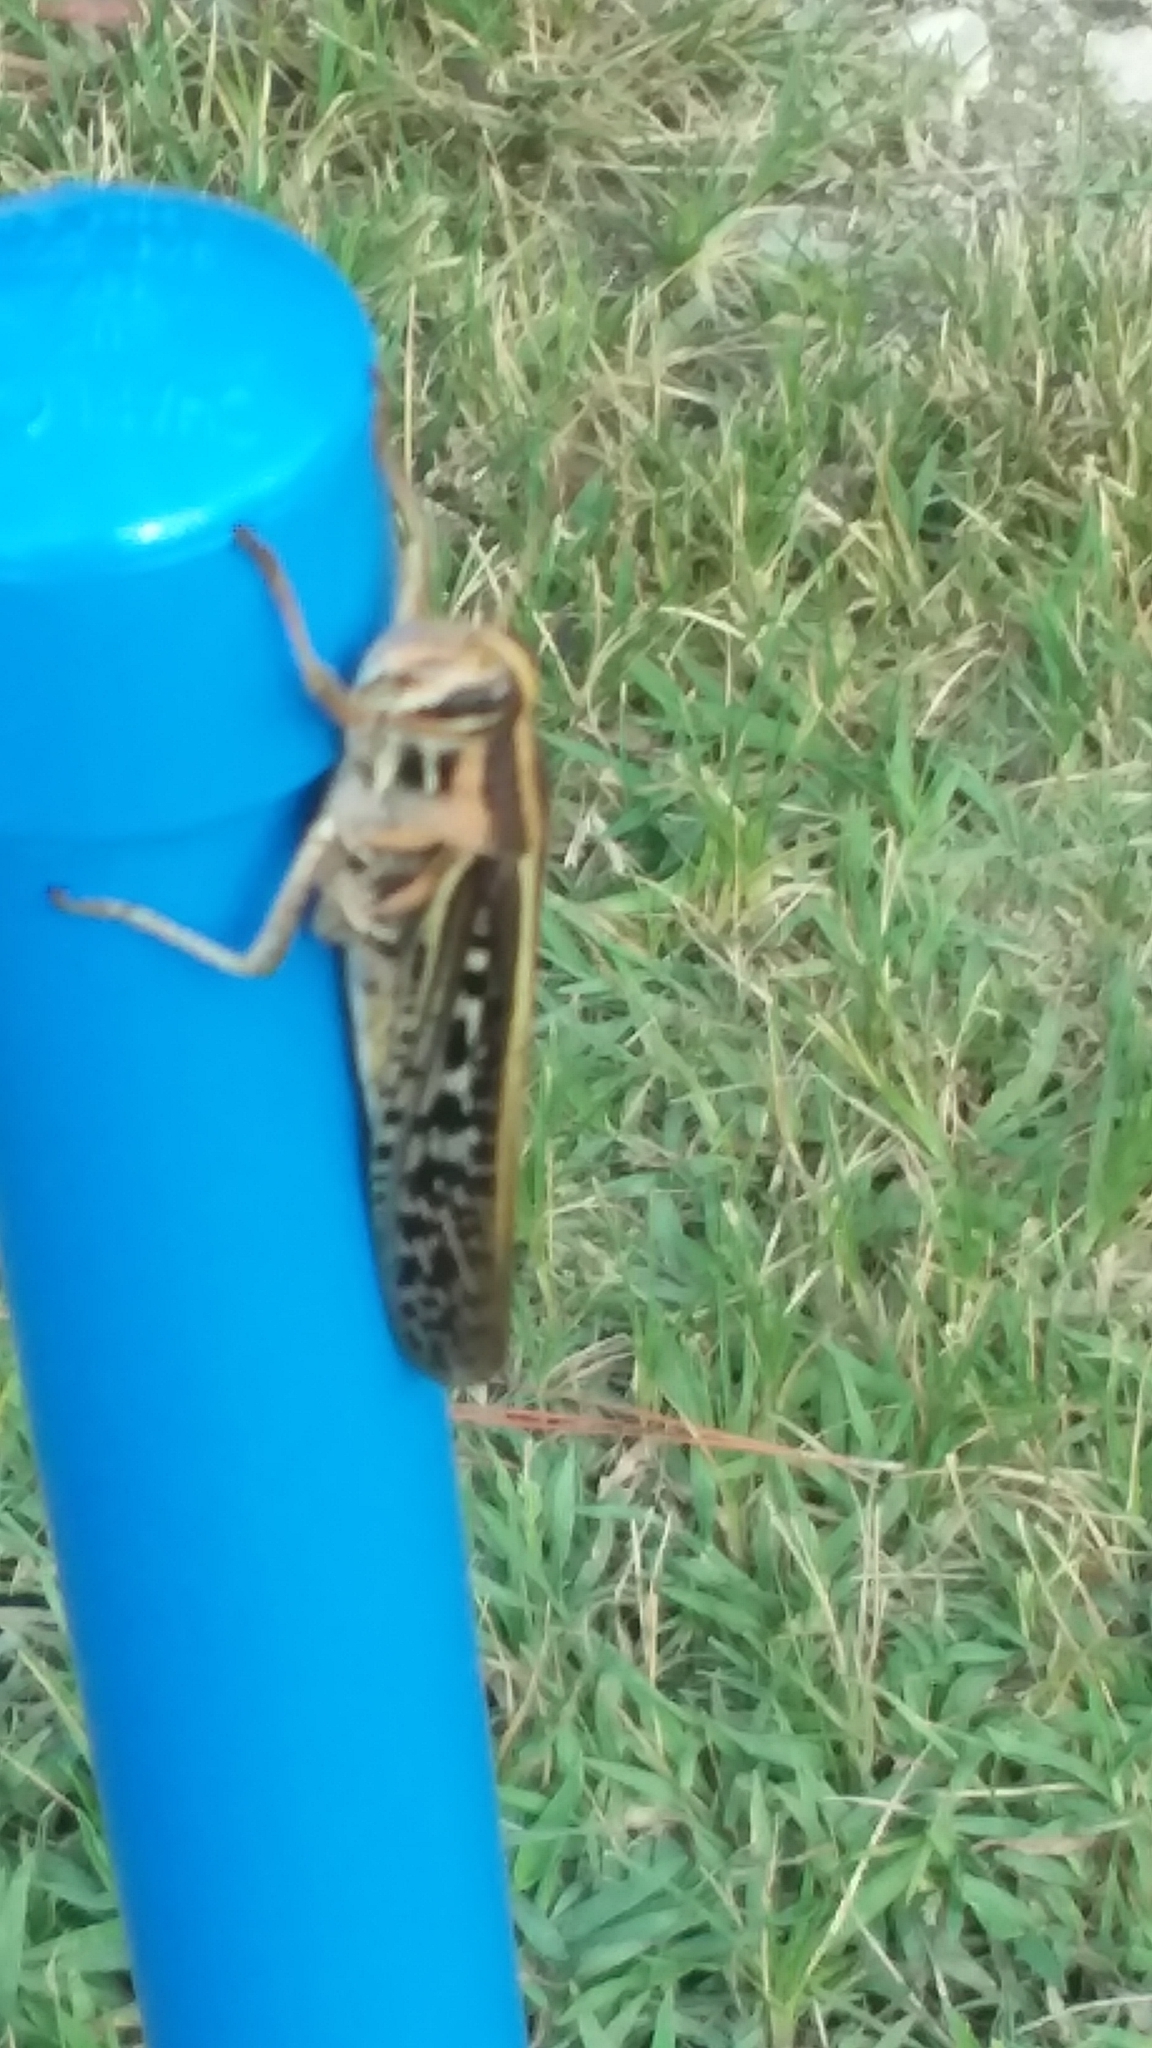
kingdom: Animalia
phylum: Arthropoda
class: Insecta
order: Orthoptera
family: Acrididae
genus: Schistocerca
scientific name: Schistocerca americana
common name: American bird locust
